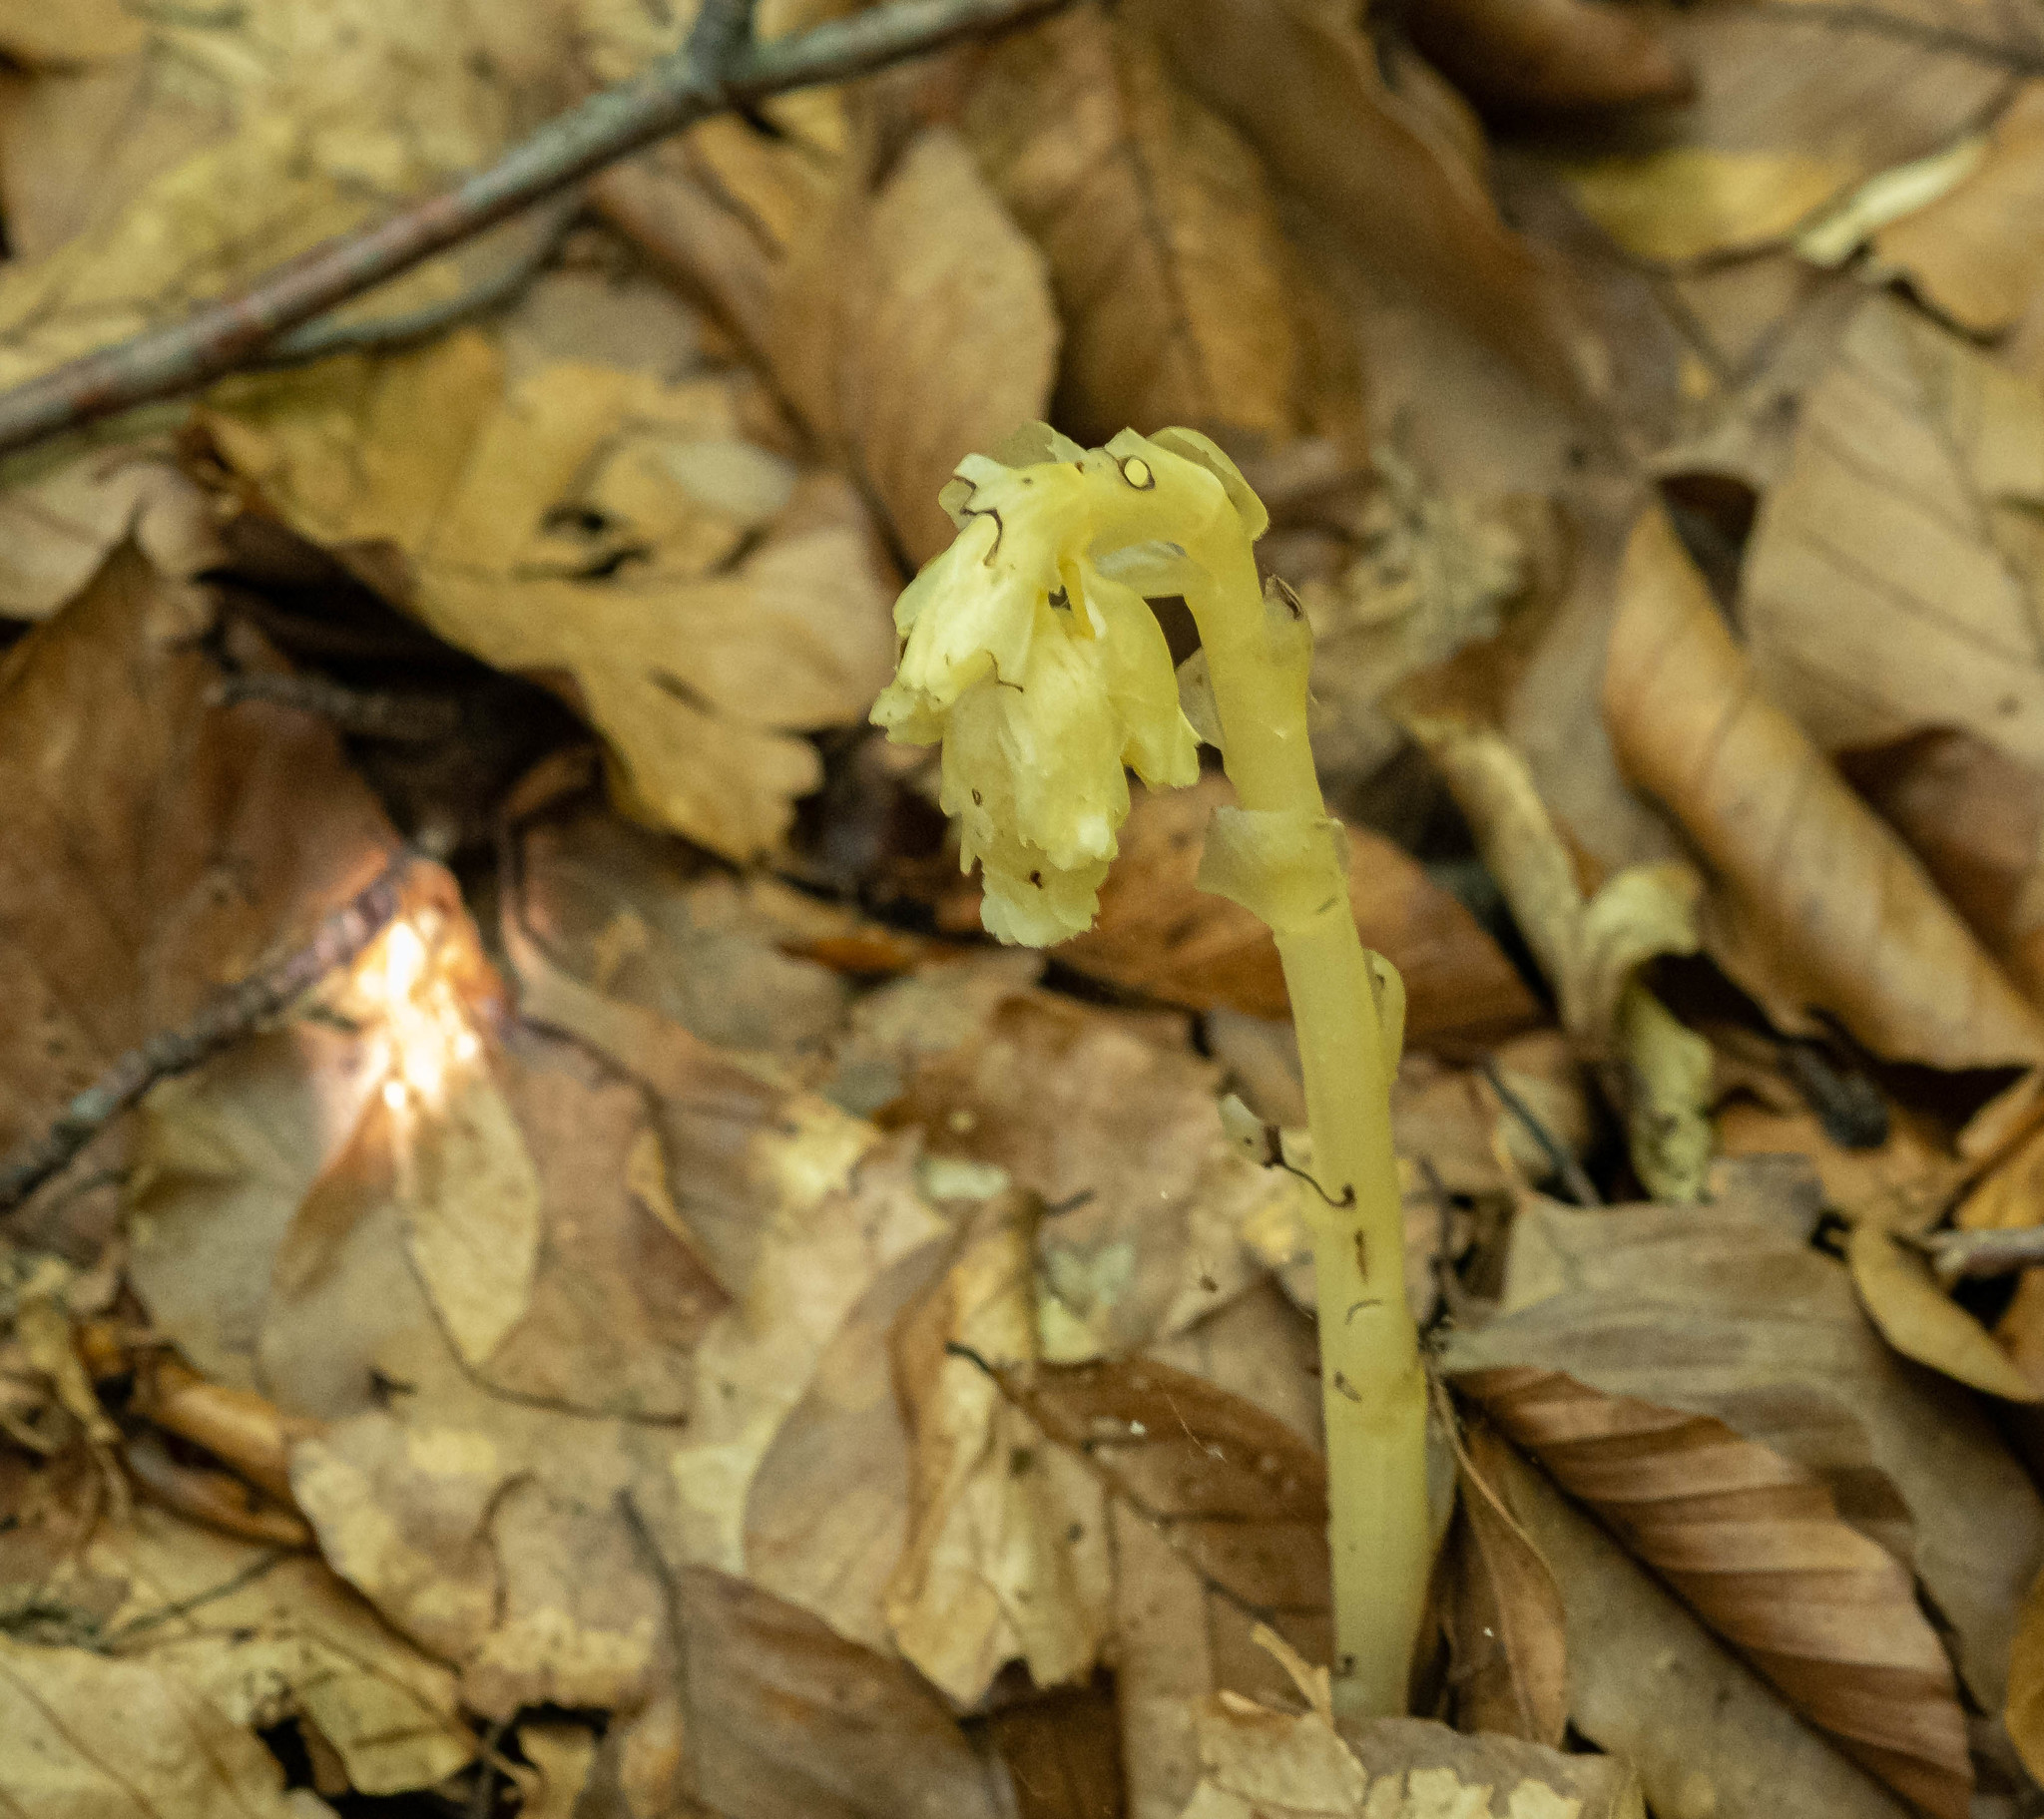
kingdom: Plantae
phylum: Tracheophyta
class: Magnoliopsida
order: Ericales
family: Ericaceae
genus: Hypopitys
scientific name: Hypopitys hypophegea
